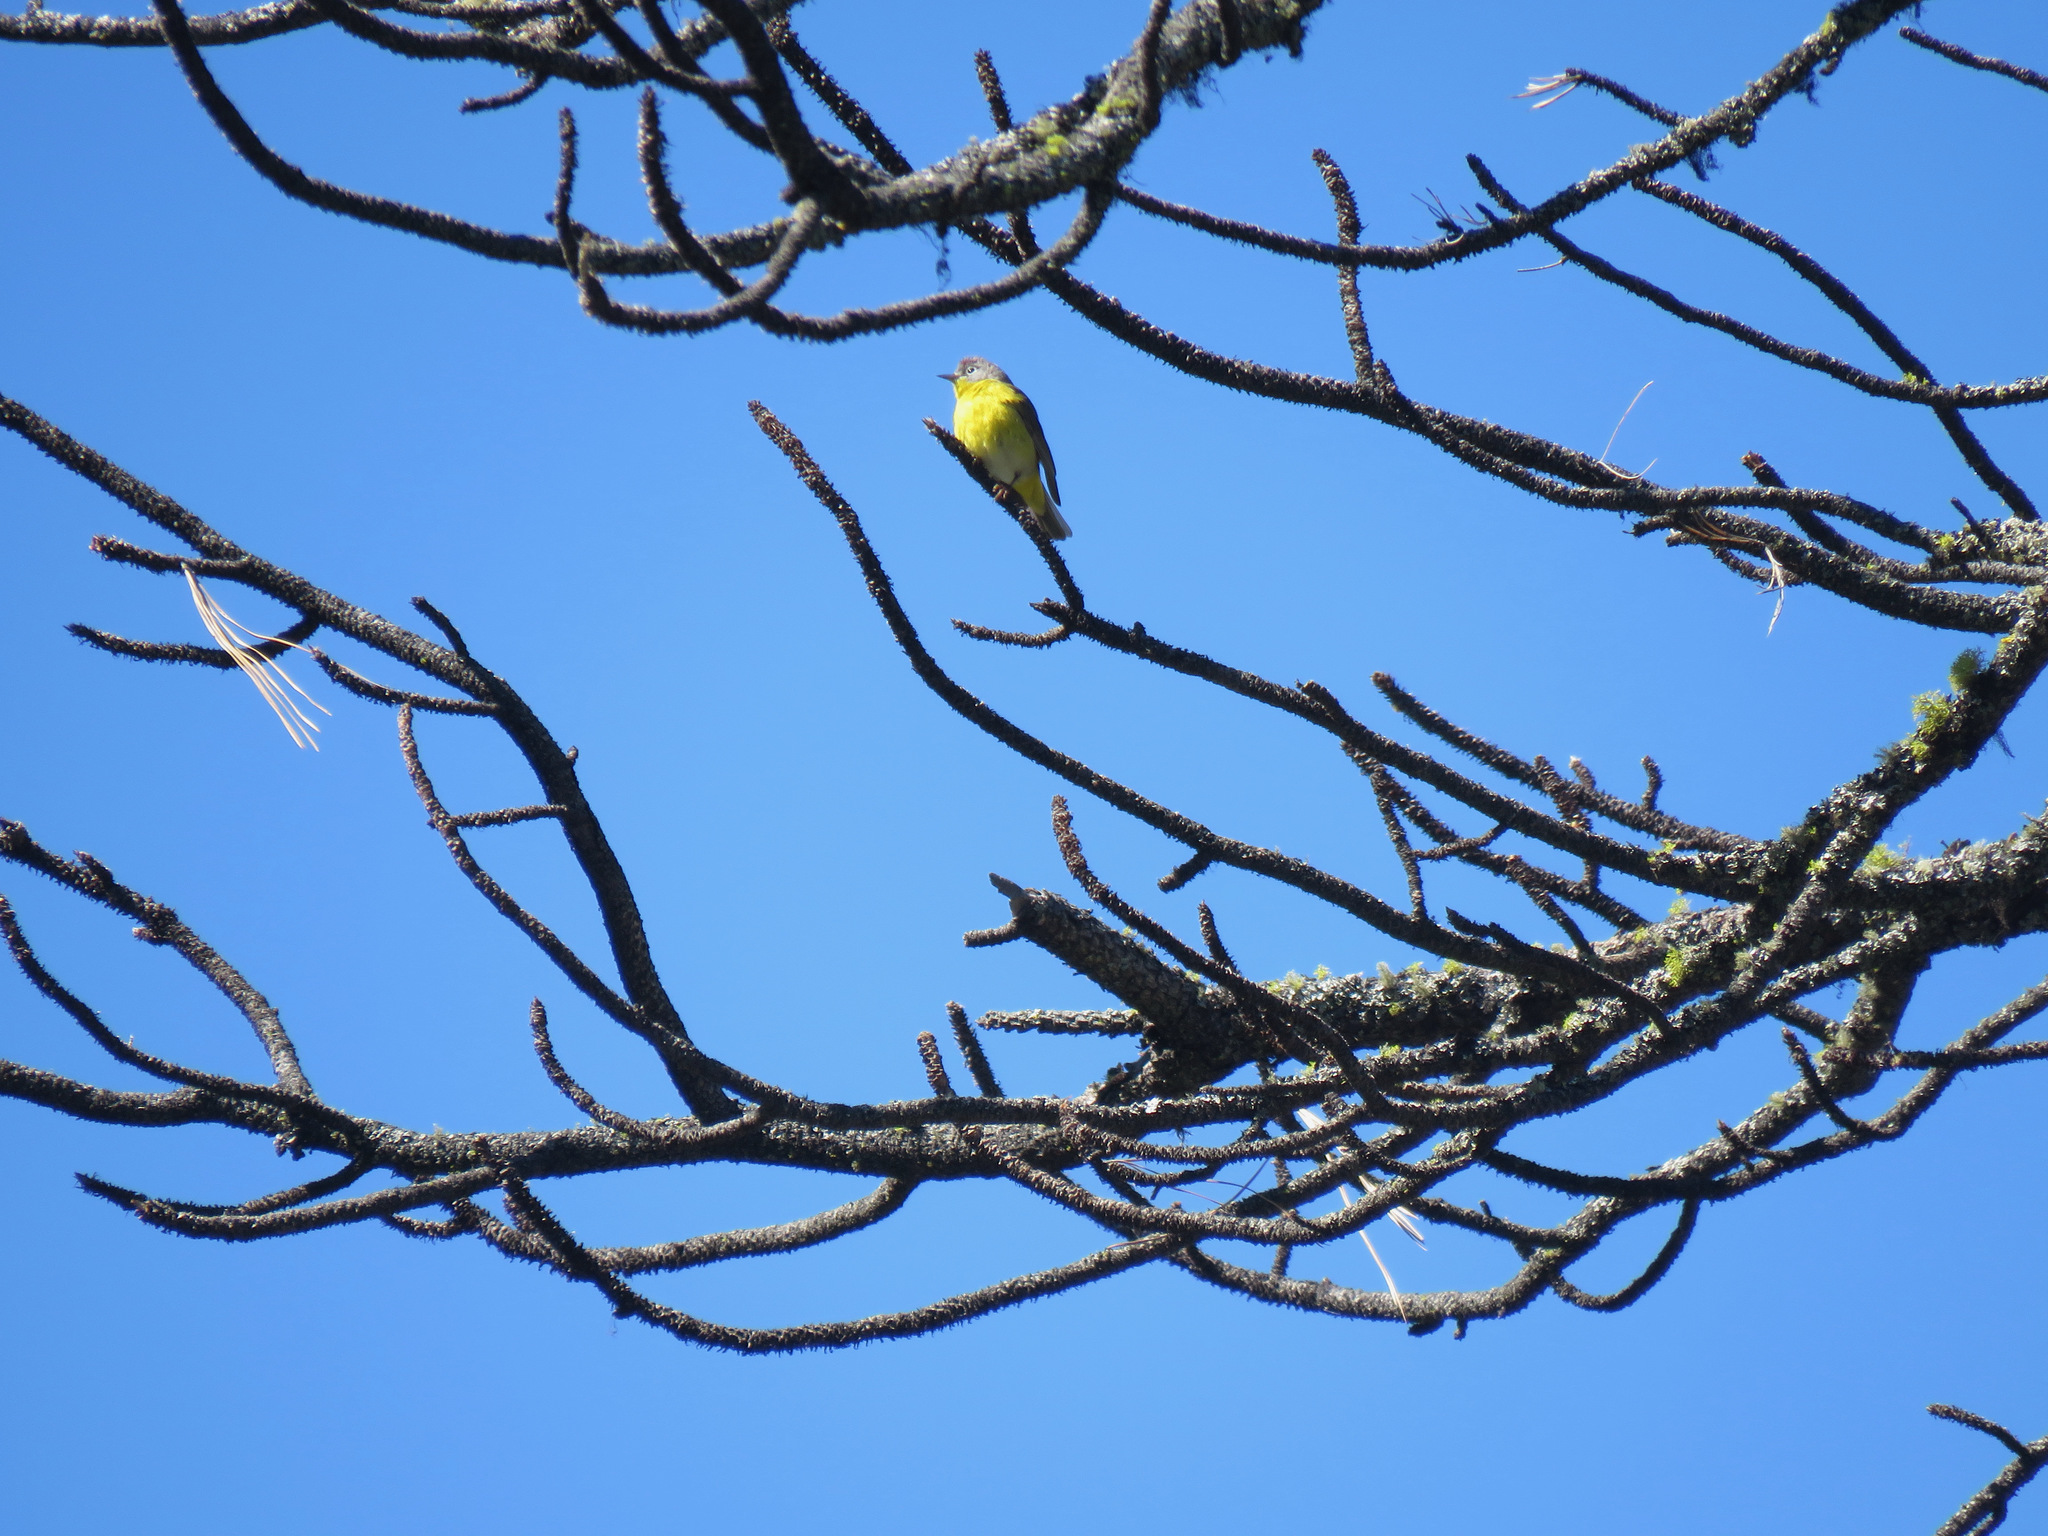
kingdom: Animalia
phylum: Chordata
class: Aves
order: Passeriformes
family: Parulidae
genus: Leiothlypis
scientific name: Leiothlypis ruficapilla
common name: Nashville warbler
